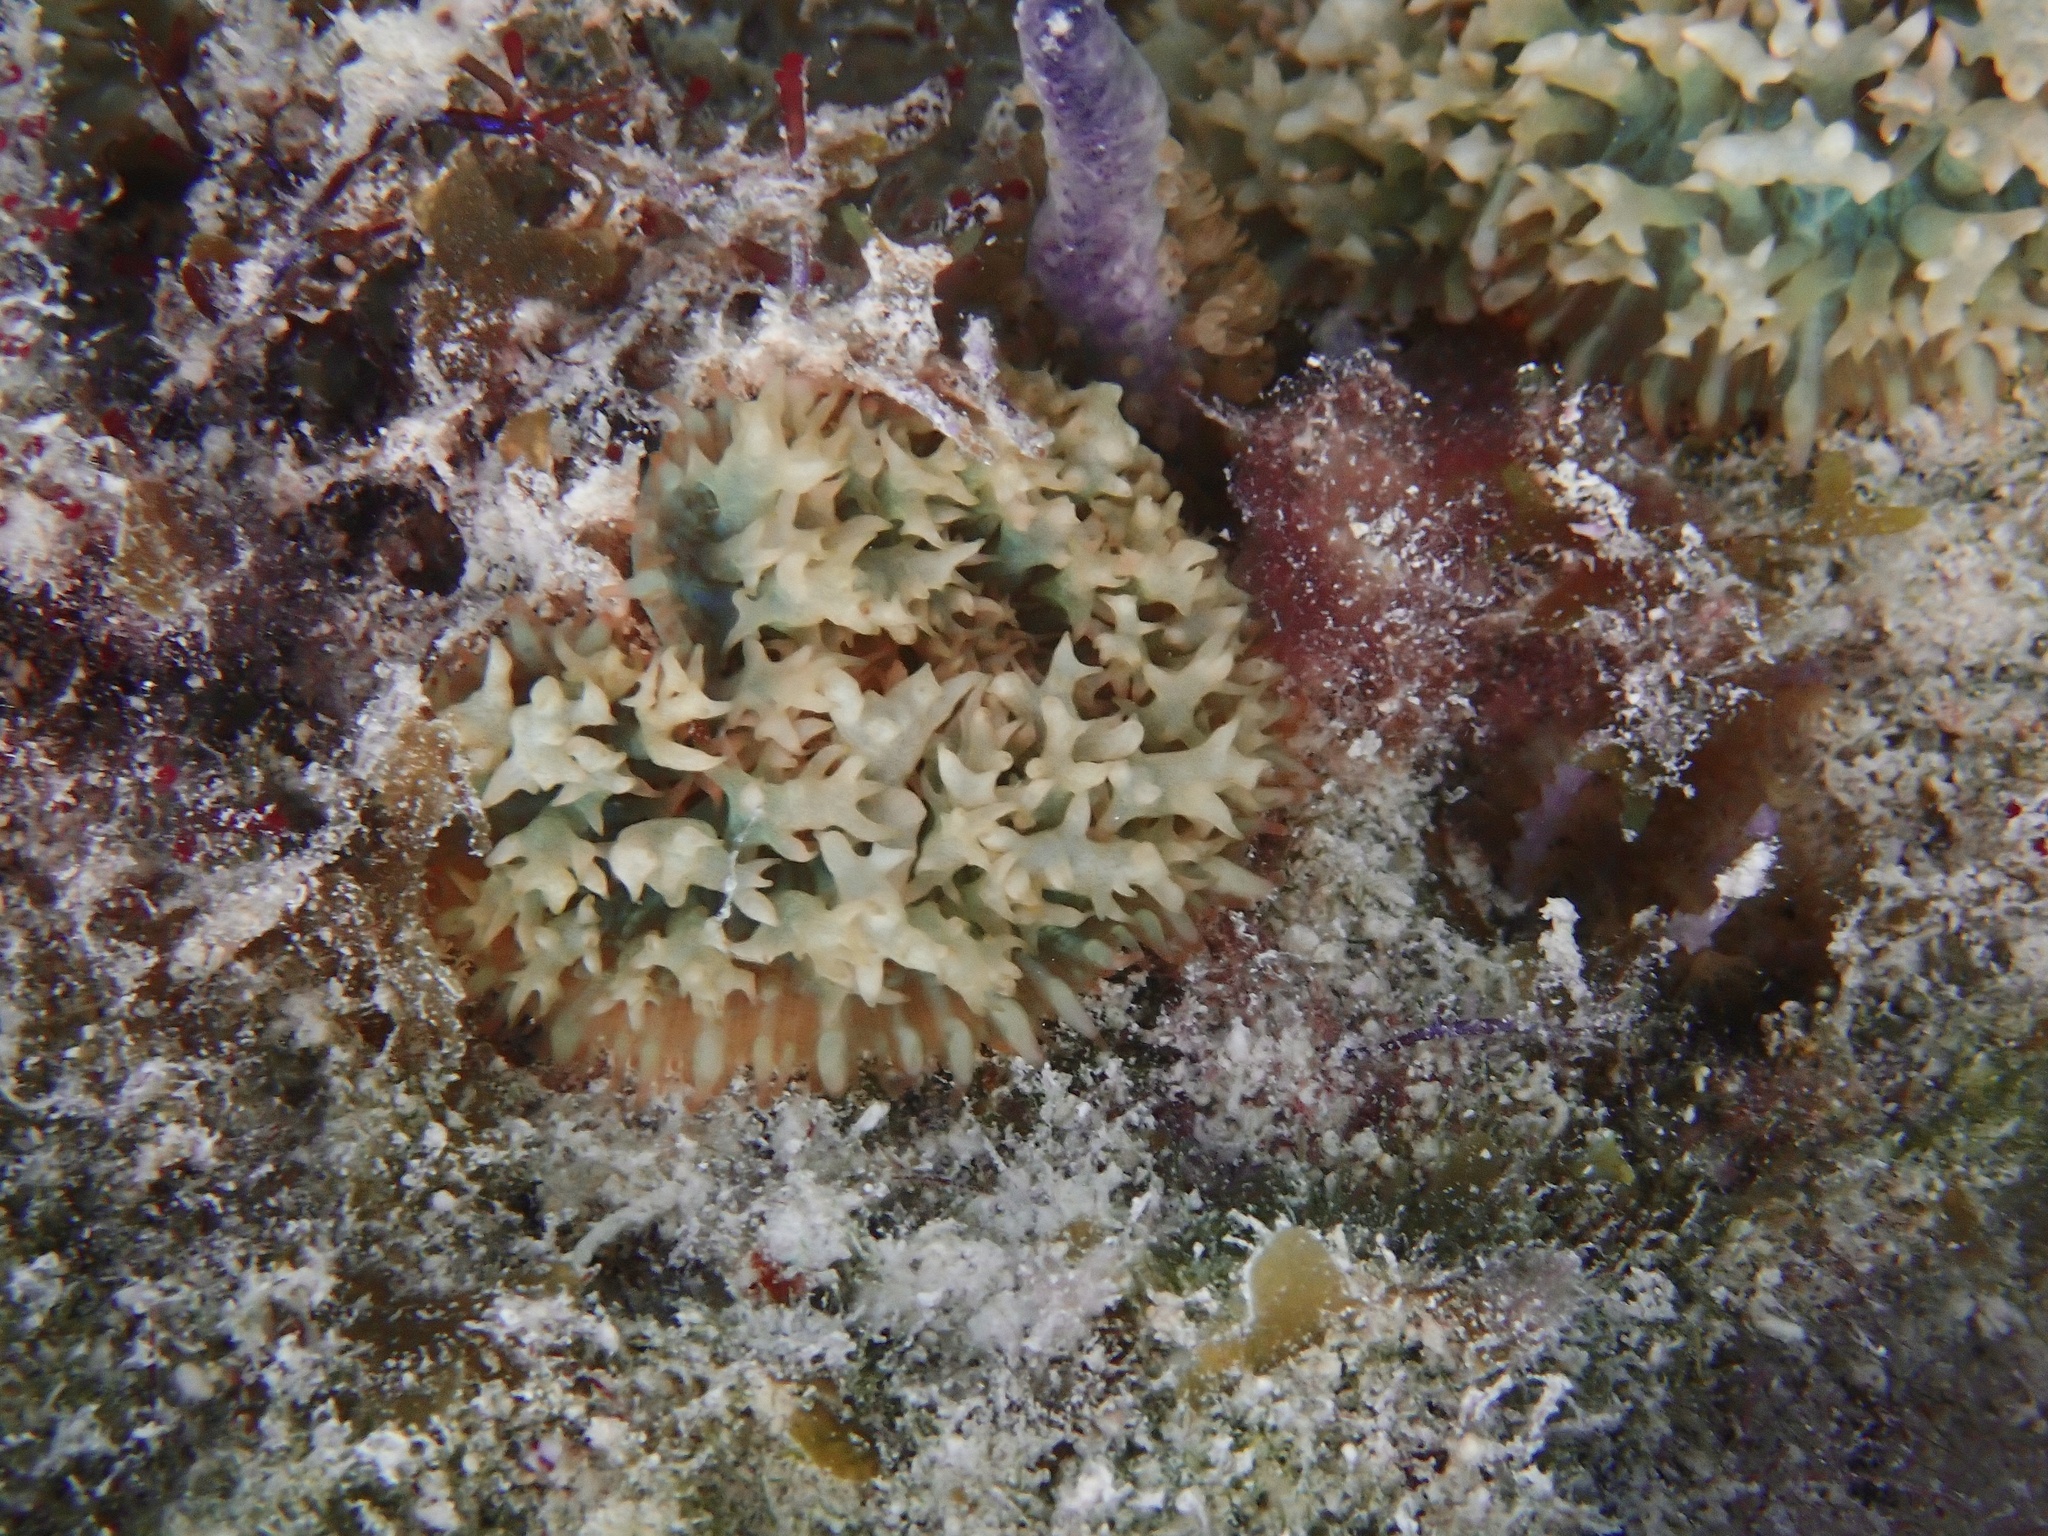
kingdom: Animalia
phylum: Cnidaria
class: Anthozoa
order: Corallimorpharia
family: Discosomidae
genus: Rhodactis
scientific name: Rhodactis osculifera
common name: Warty corallimorph
